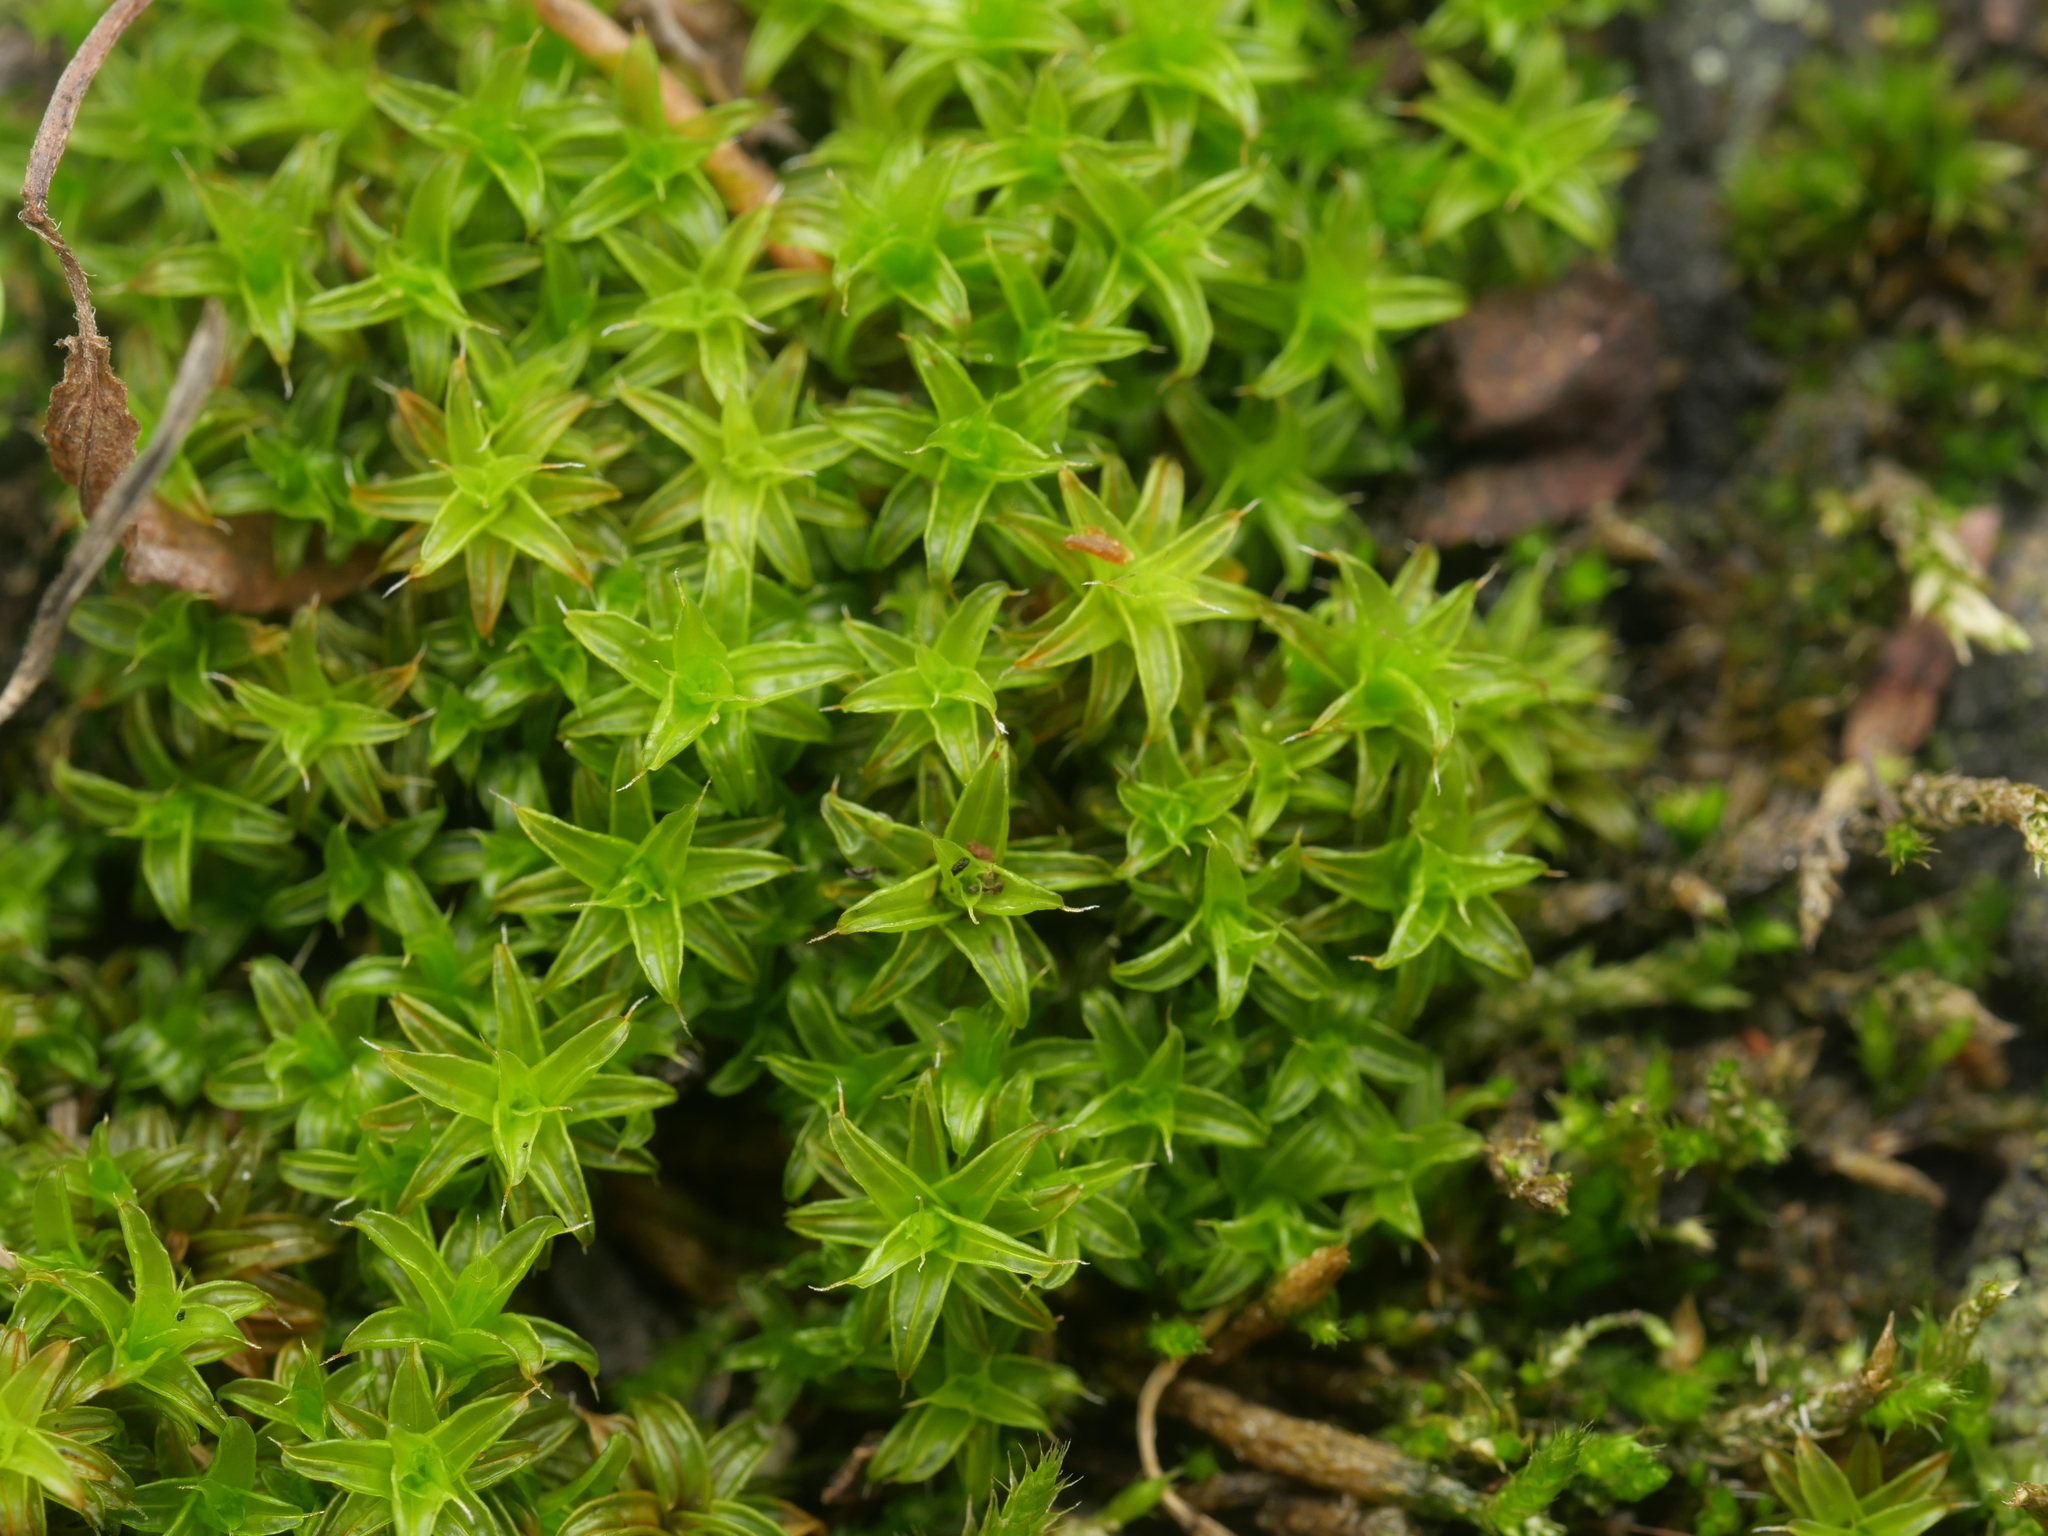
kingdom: Plantae
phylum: Bryophyta
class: Bryopsida
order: Pottiales
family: Pottiaceae
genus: Syntrichia
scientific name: Syntrichia ruralis
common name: Sidewalk screw moss
